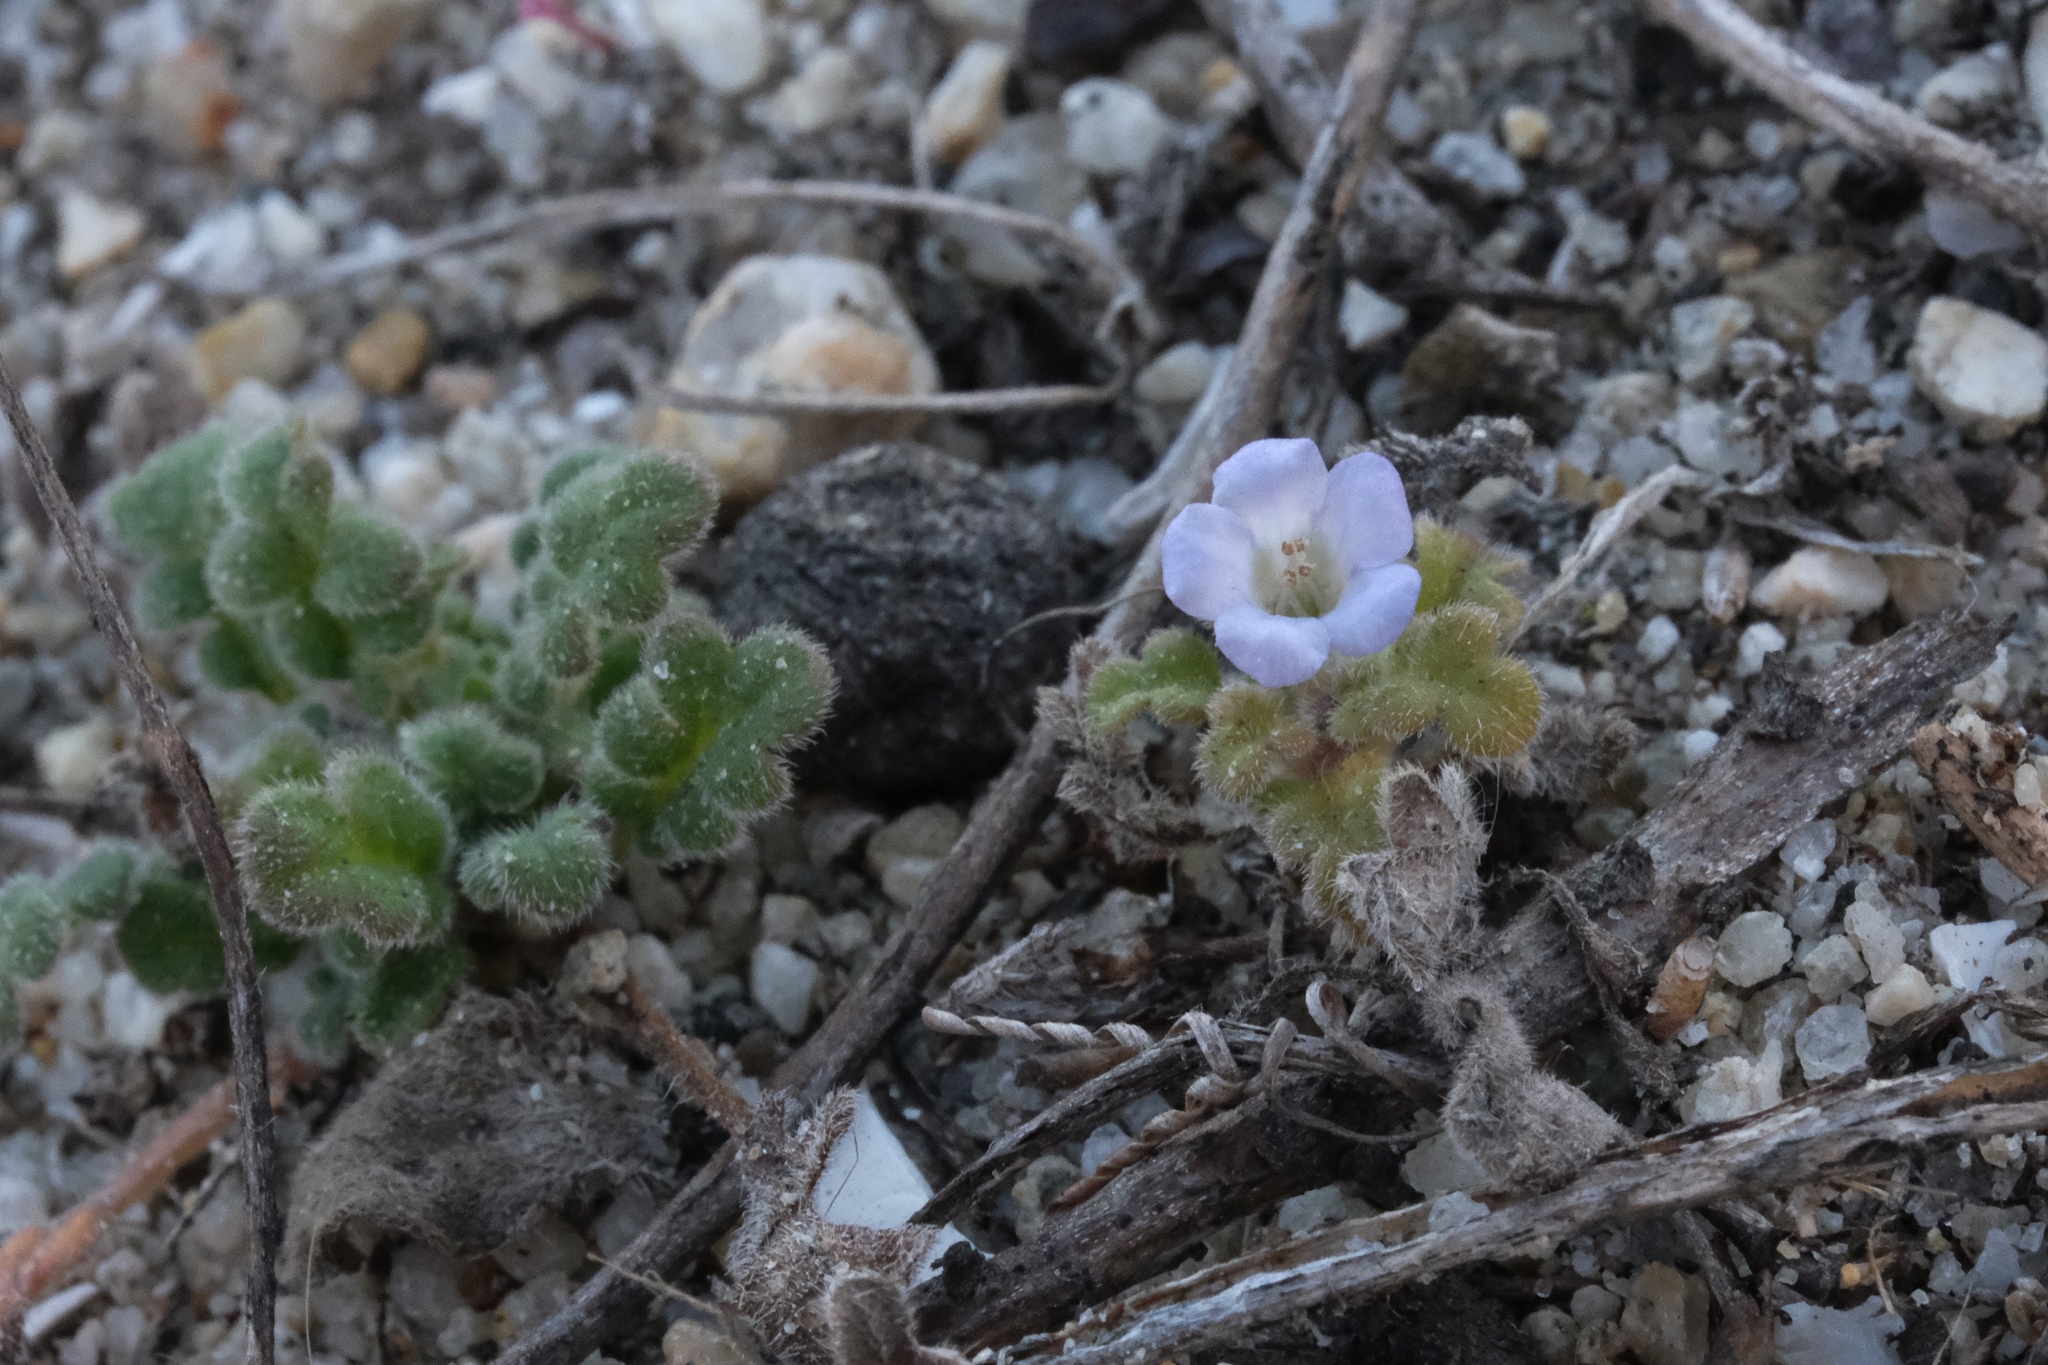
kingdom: Plantae
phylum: Tracheophyta
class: Magnoliopsida
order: Boraginales
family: Hydrophyllaceae
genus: Phacelia
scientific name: Phacelia stellaris
